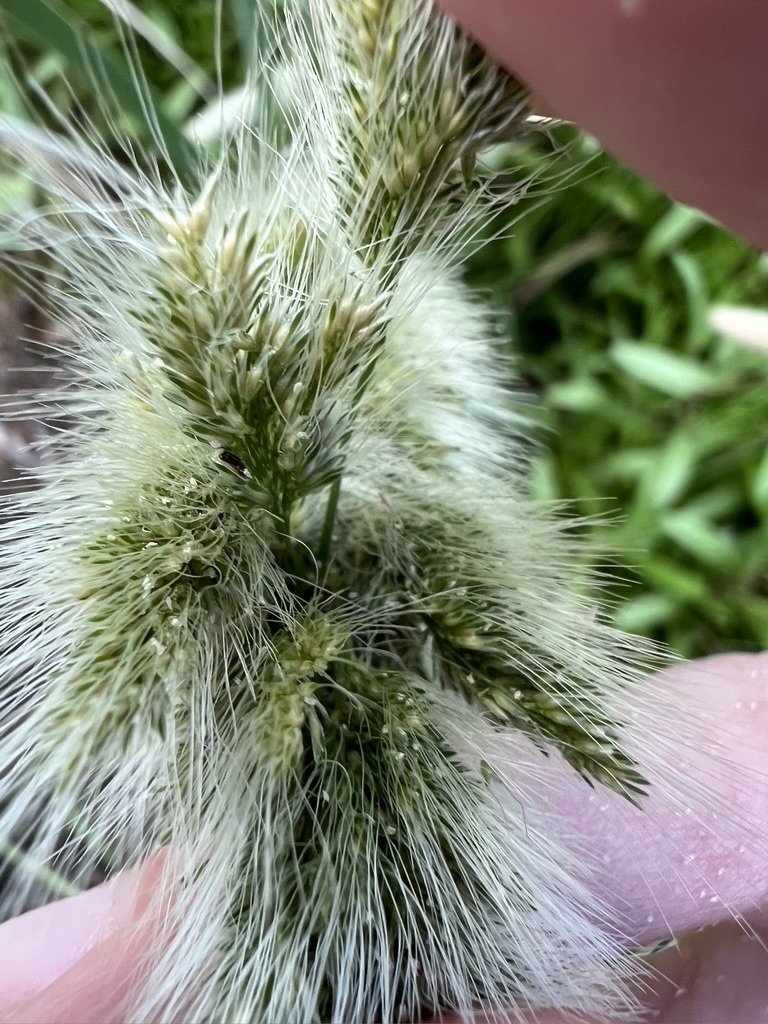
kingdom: Plantae
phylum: Tracheophyta
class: Liliopsida
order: Poales
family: Poaceae
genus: Polypogon
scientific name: Polypogon monspeliensis
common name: Annual rabbitsfoot grass
